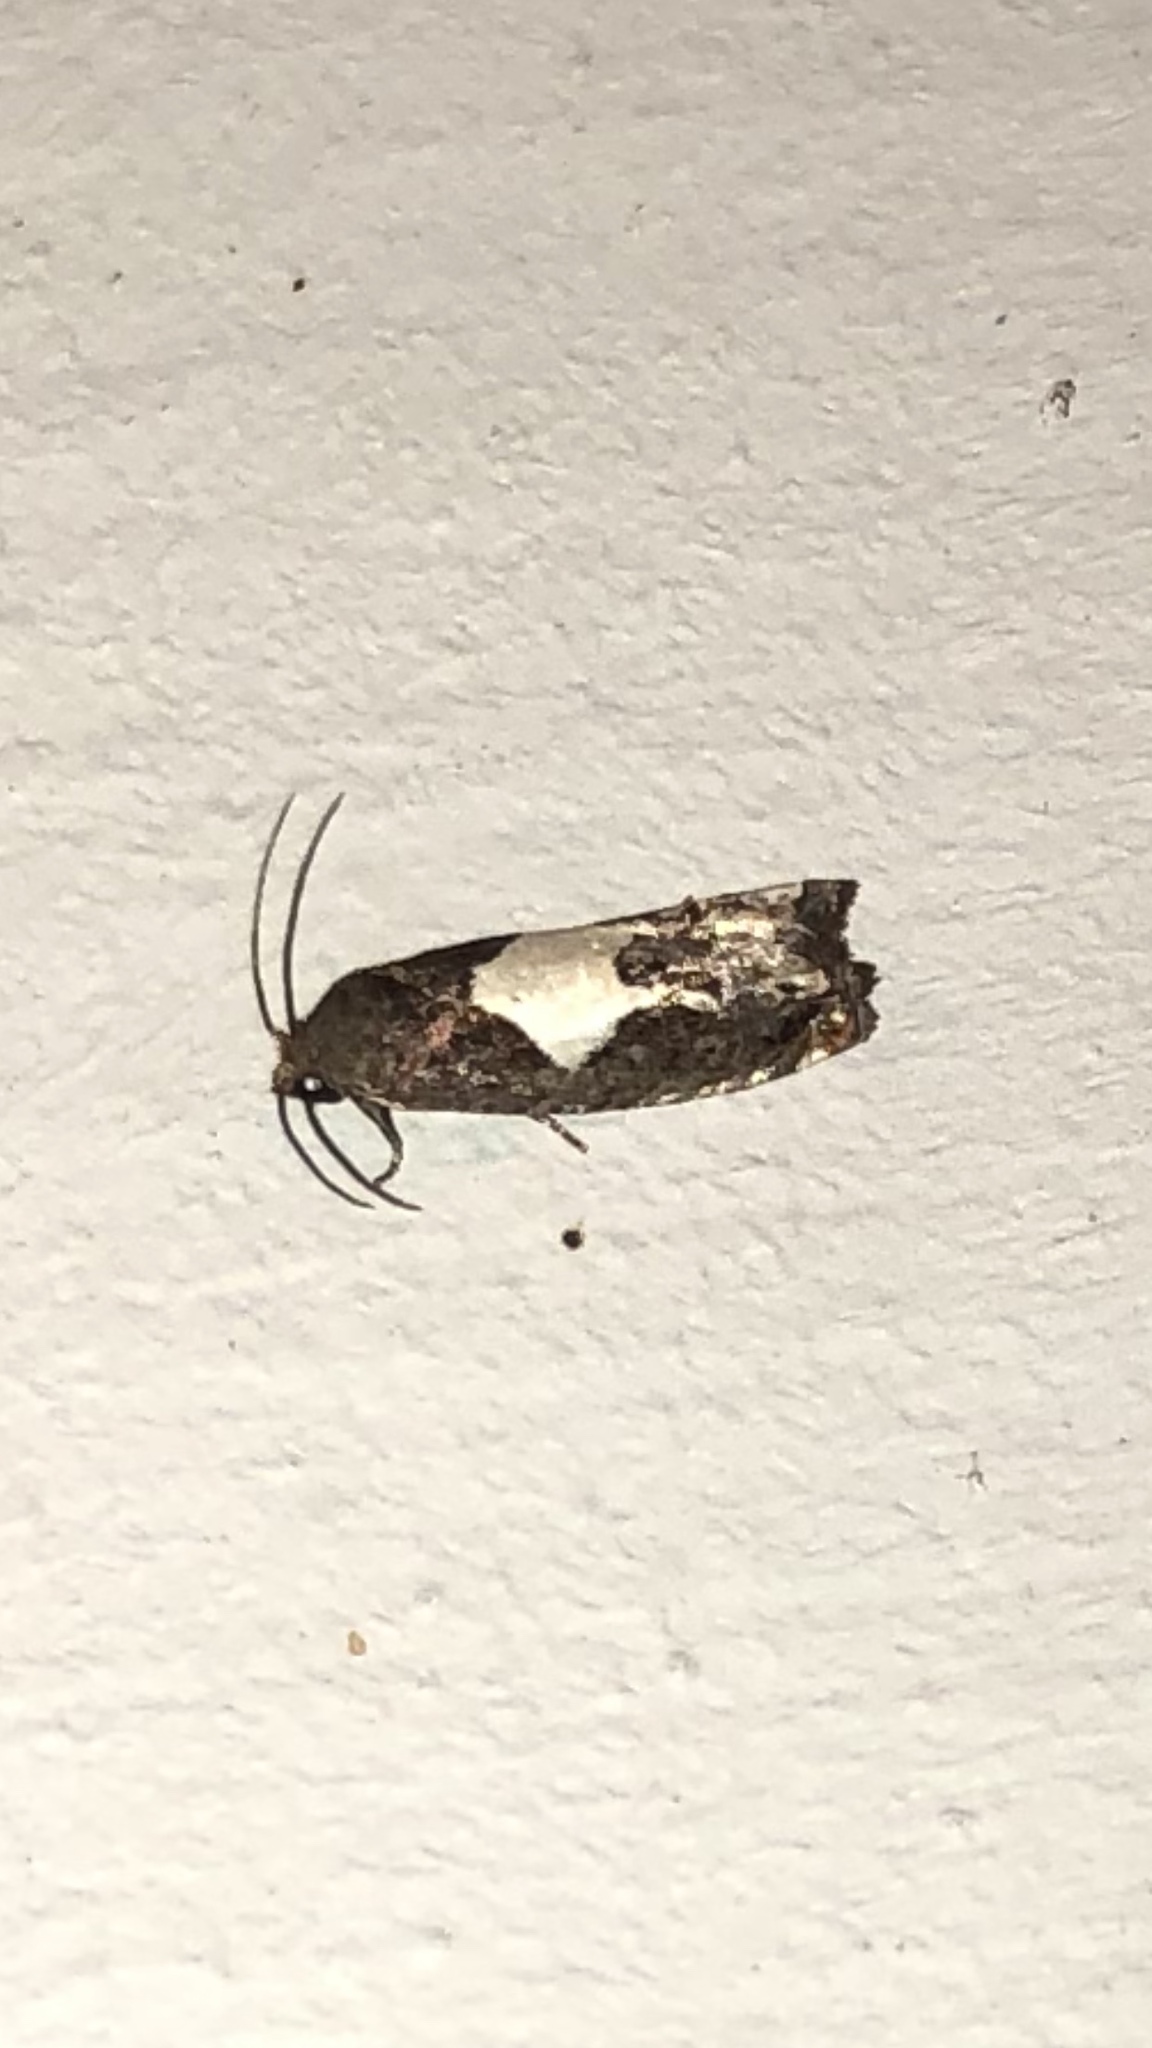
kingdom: Animalia
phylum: Arthropoda
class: Insecta
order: Lepidoptera
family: Tortricidae
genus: Epiblema
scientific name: Epiblema otiosana
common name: Bidens borer moth
